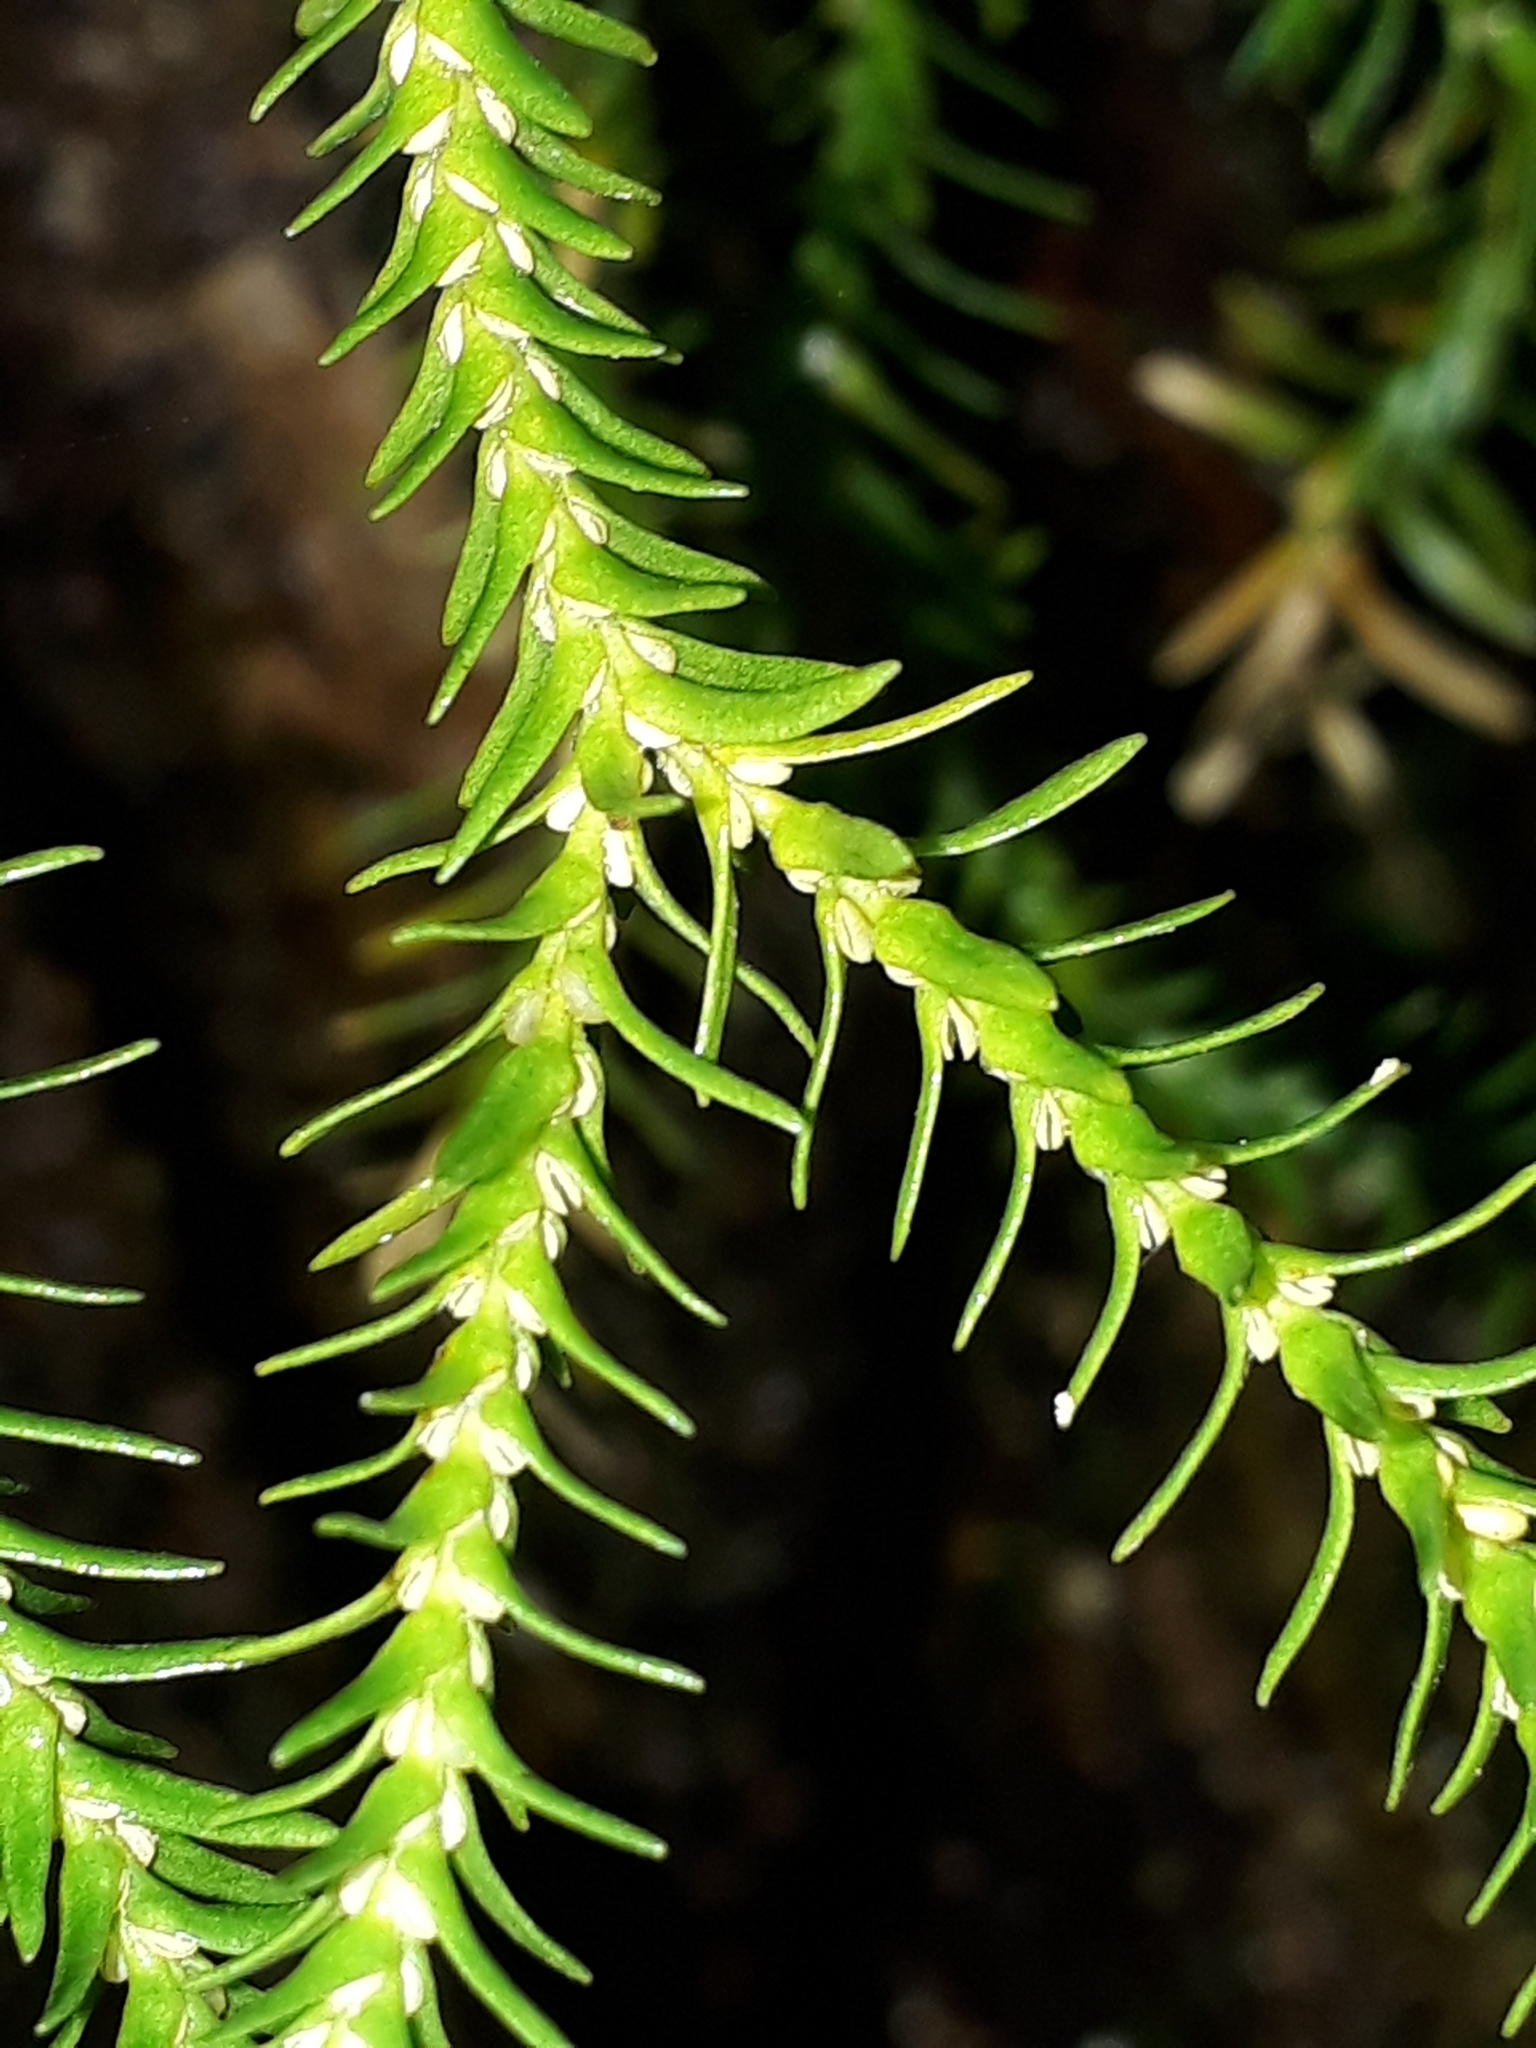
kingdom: Plantae
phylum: Tracheophyta
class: Lycopodiopsida
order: Lycopodiales
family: Lycopodiaceae
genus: Phlegmariurus
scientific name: Phlegmariurus varius
